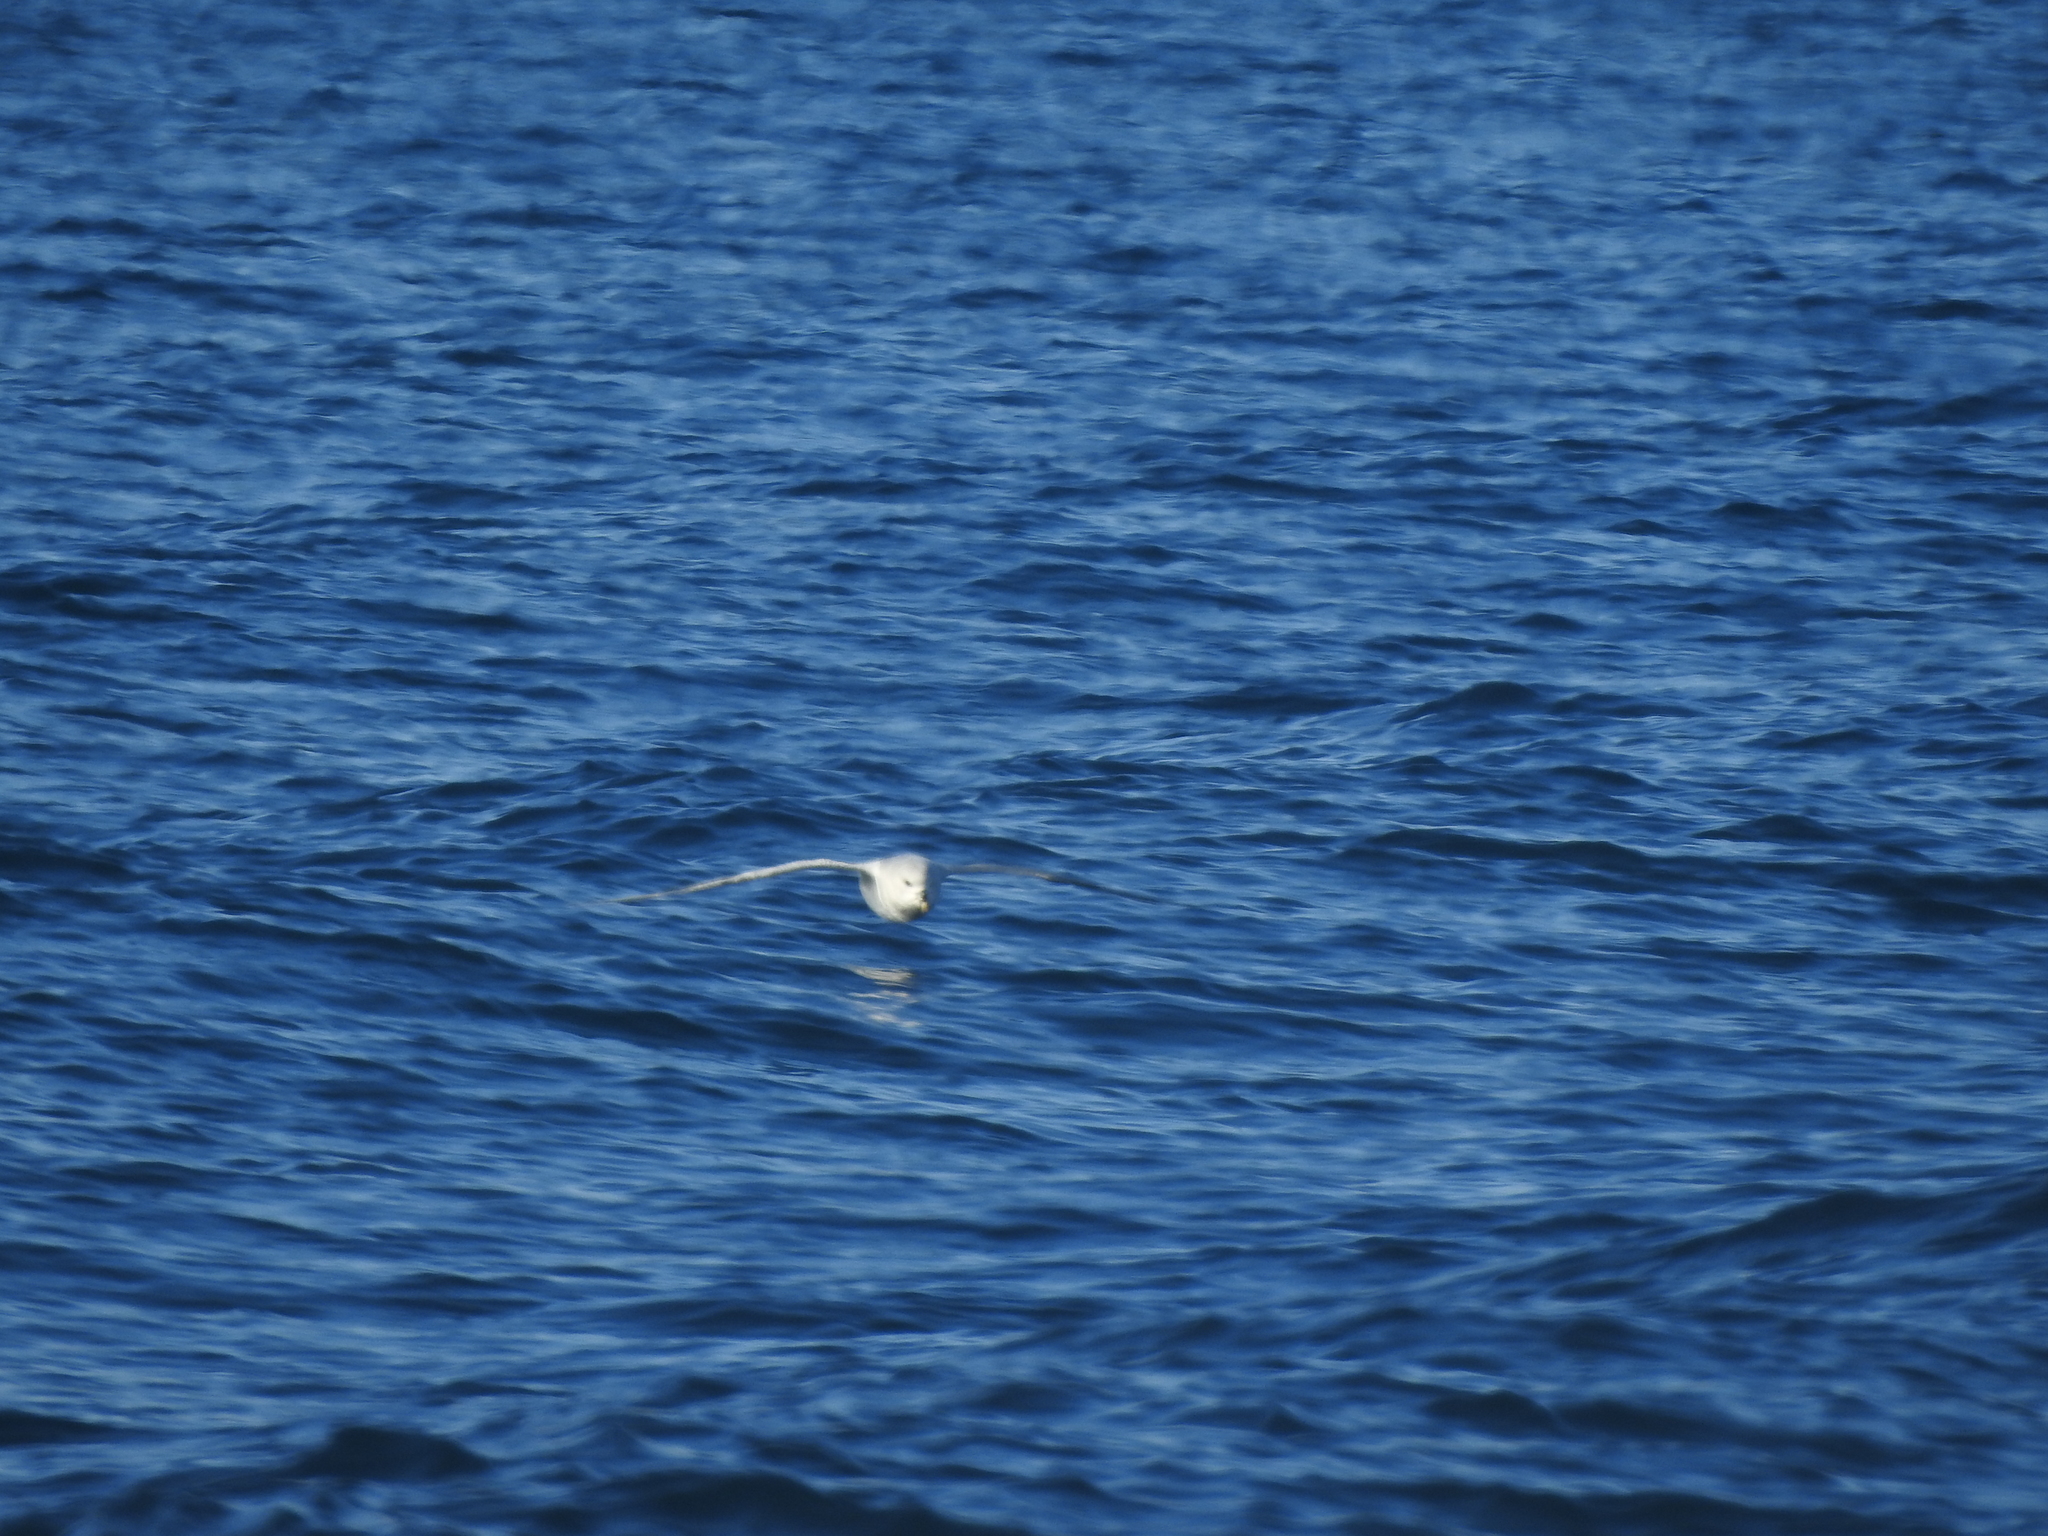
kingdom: Animalia
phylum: Chordata
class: Aves
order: Procellariiformes
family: Procellariidae
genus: Fulmarus
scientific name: Fulmarus glacialis
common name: Northern fulmar
